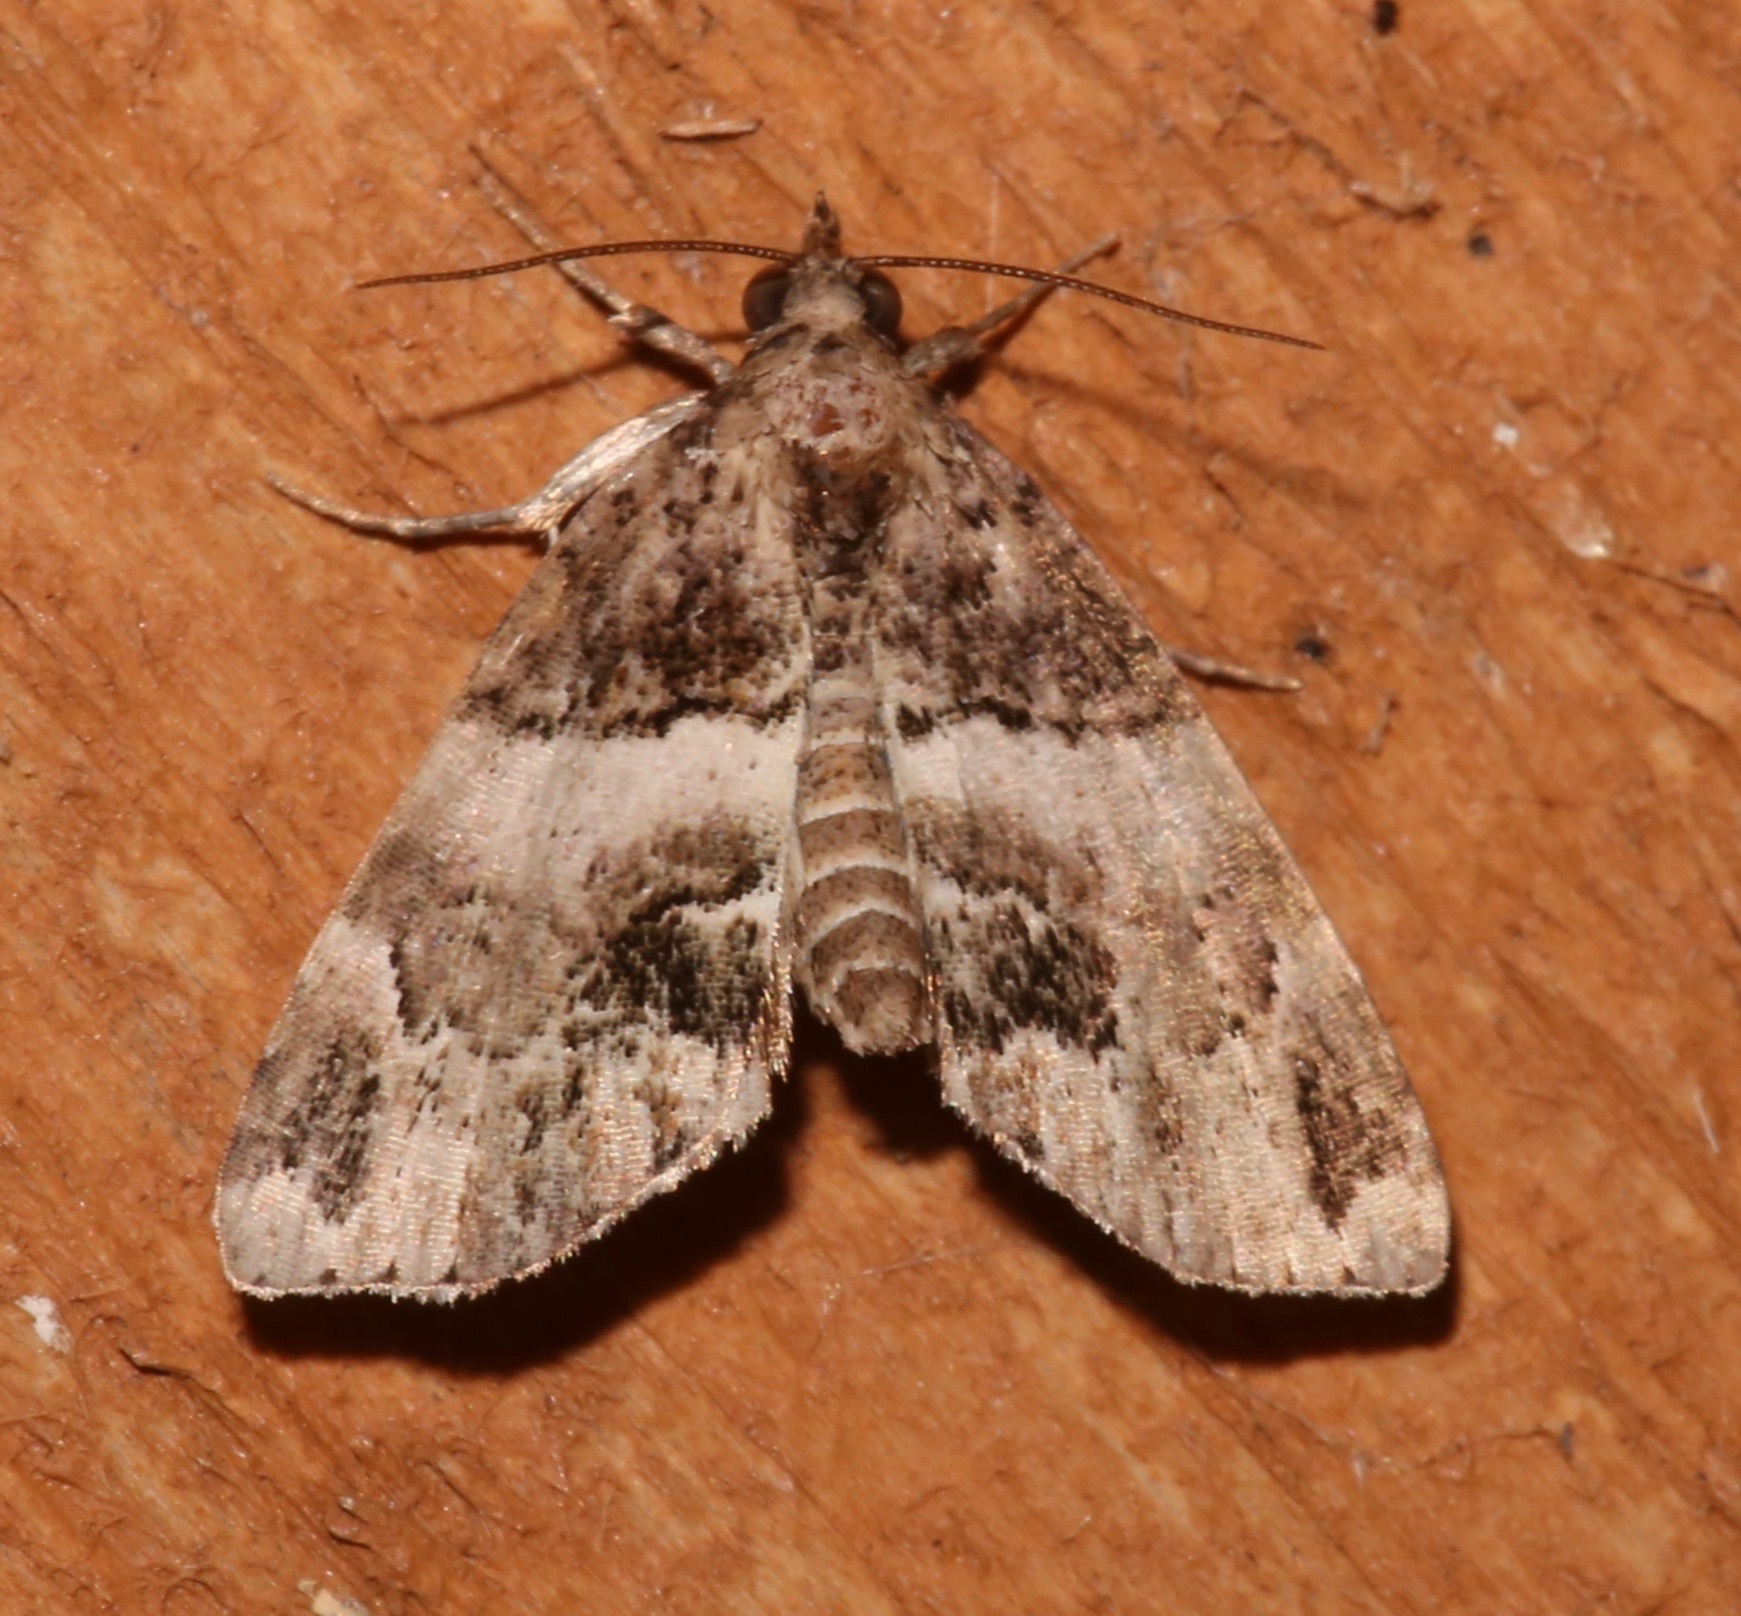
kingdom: Animalia
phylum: Arthropoda
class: Insecta
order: Lepidoptera
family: Erebidae
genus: Cutina
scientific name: Cutina distincta
